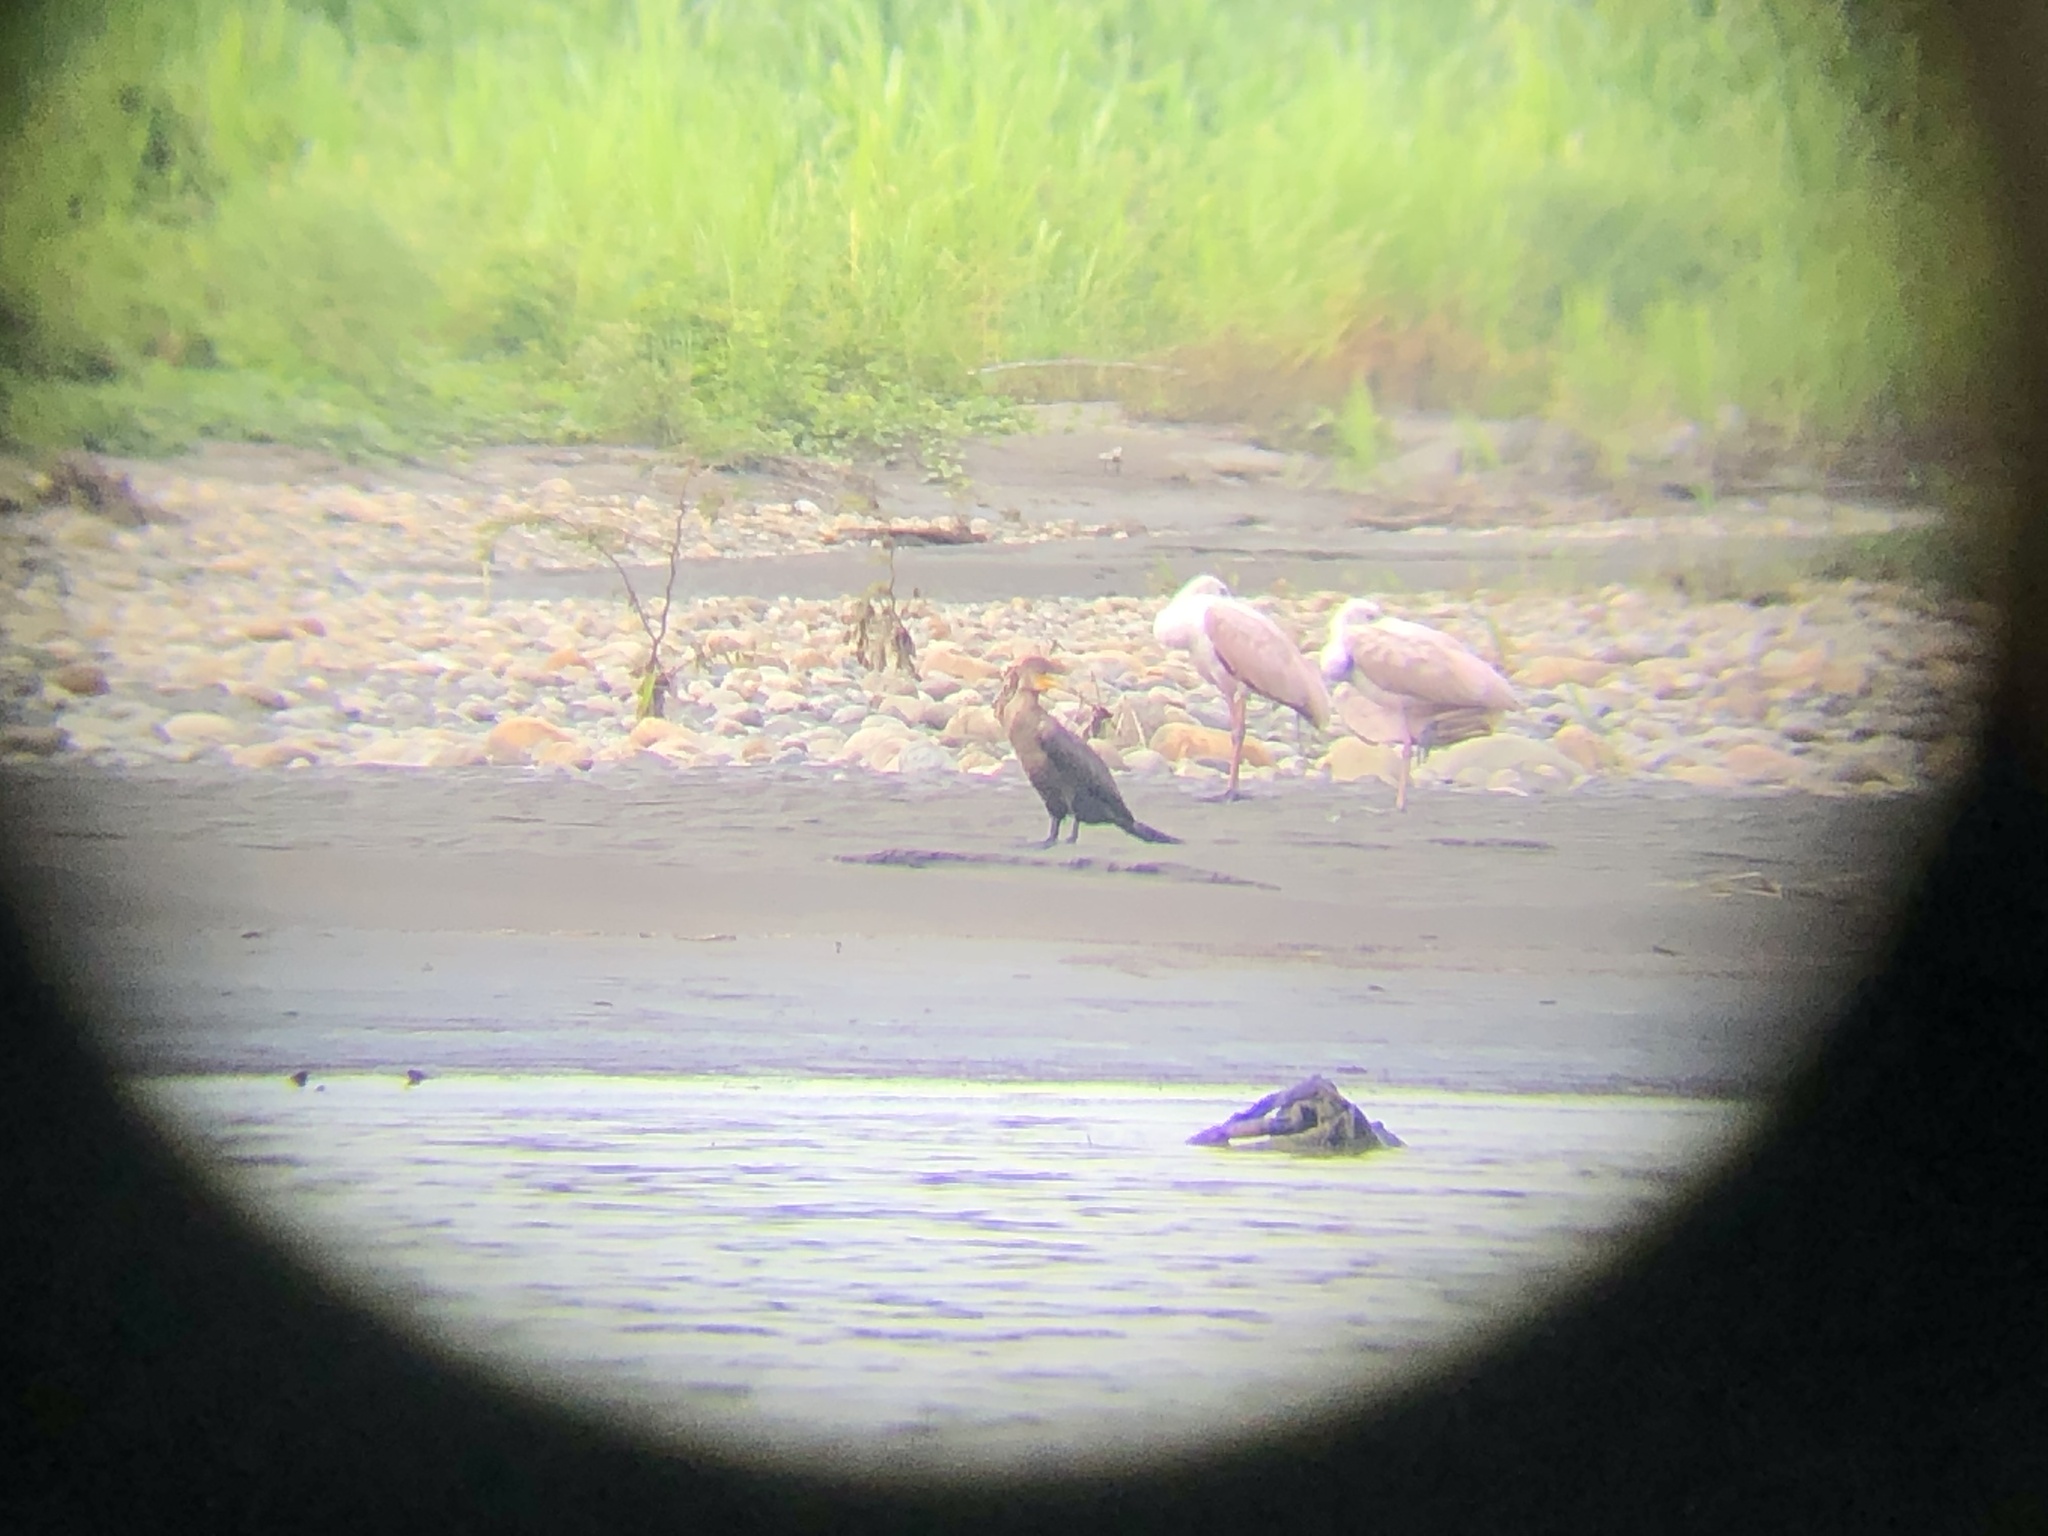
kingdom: Animalia
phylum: Chordata
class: Aves
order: Pelecaniformes
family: Threskiornithidae
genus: Platalea
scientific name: Platalea ajaja
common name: Roseate spoonbill
